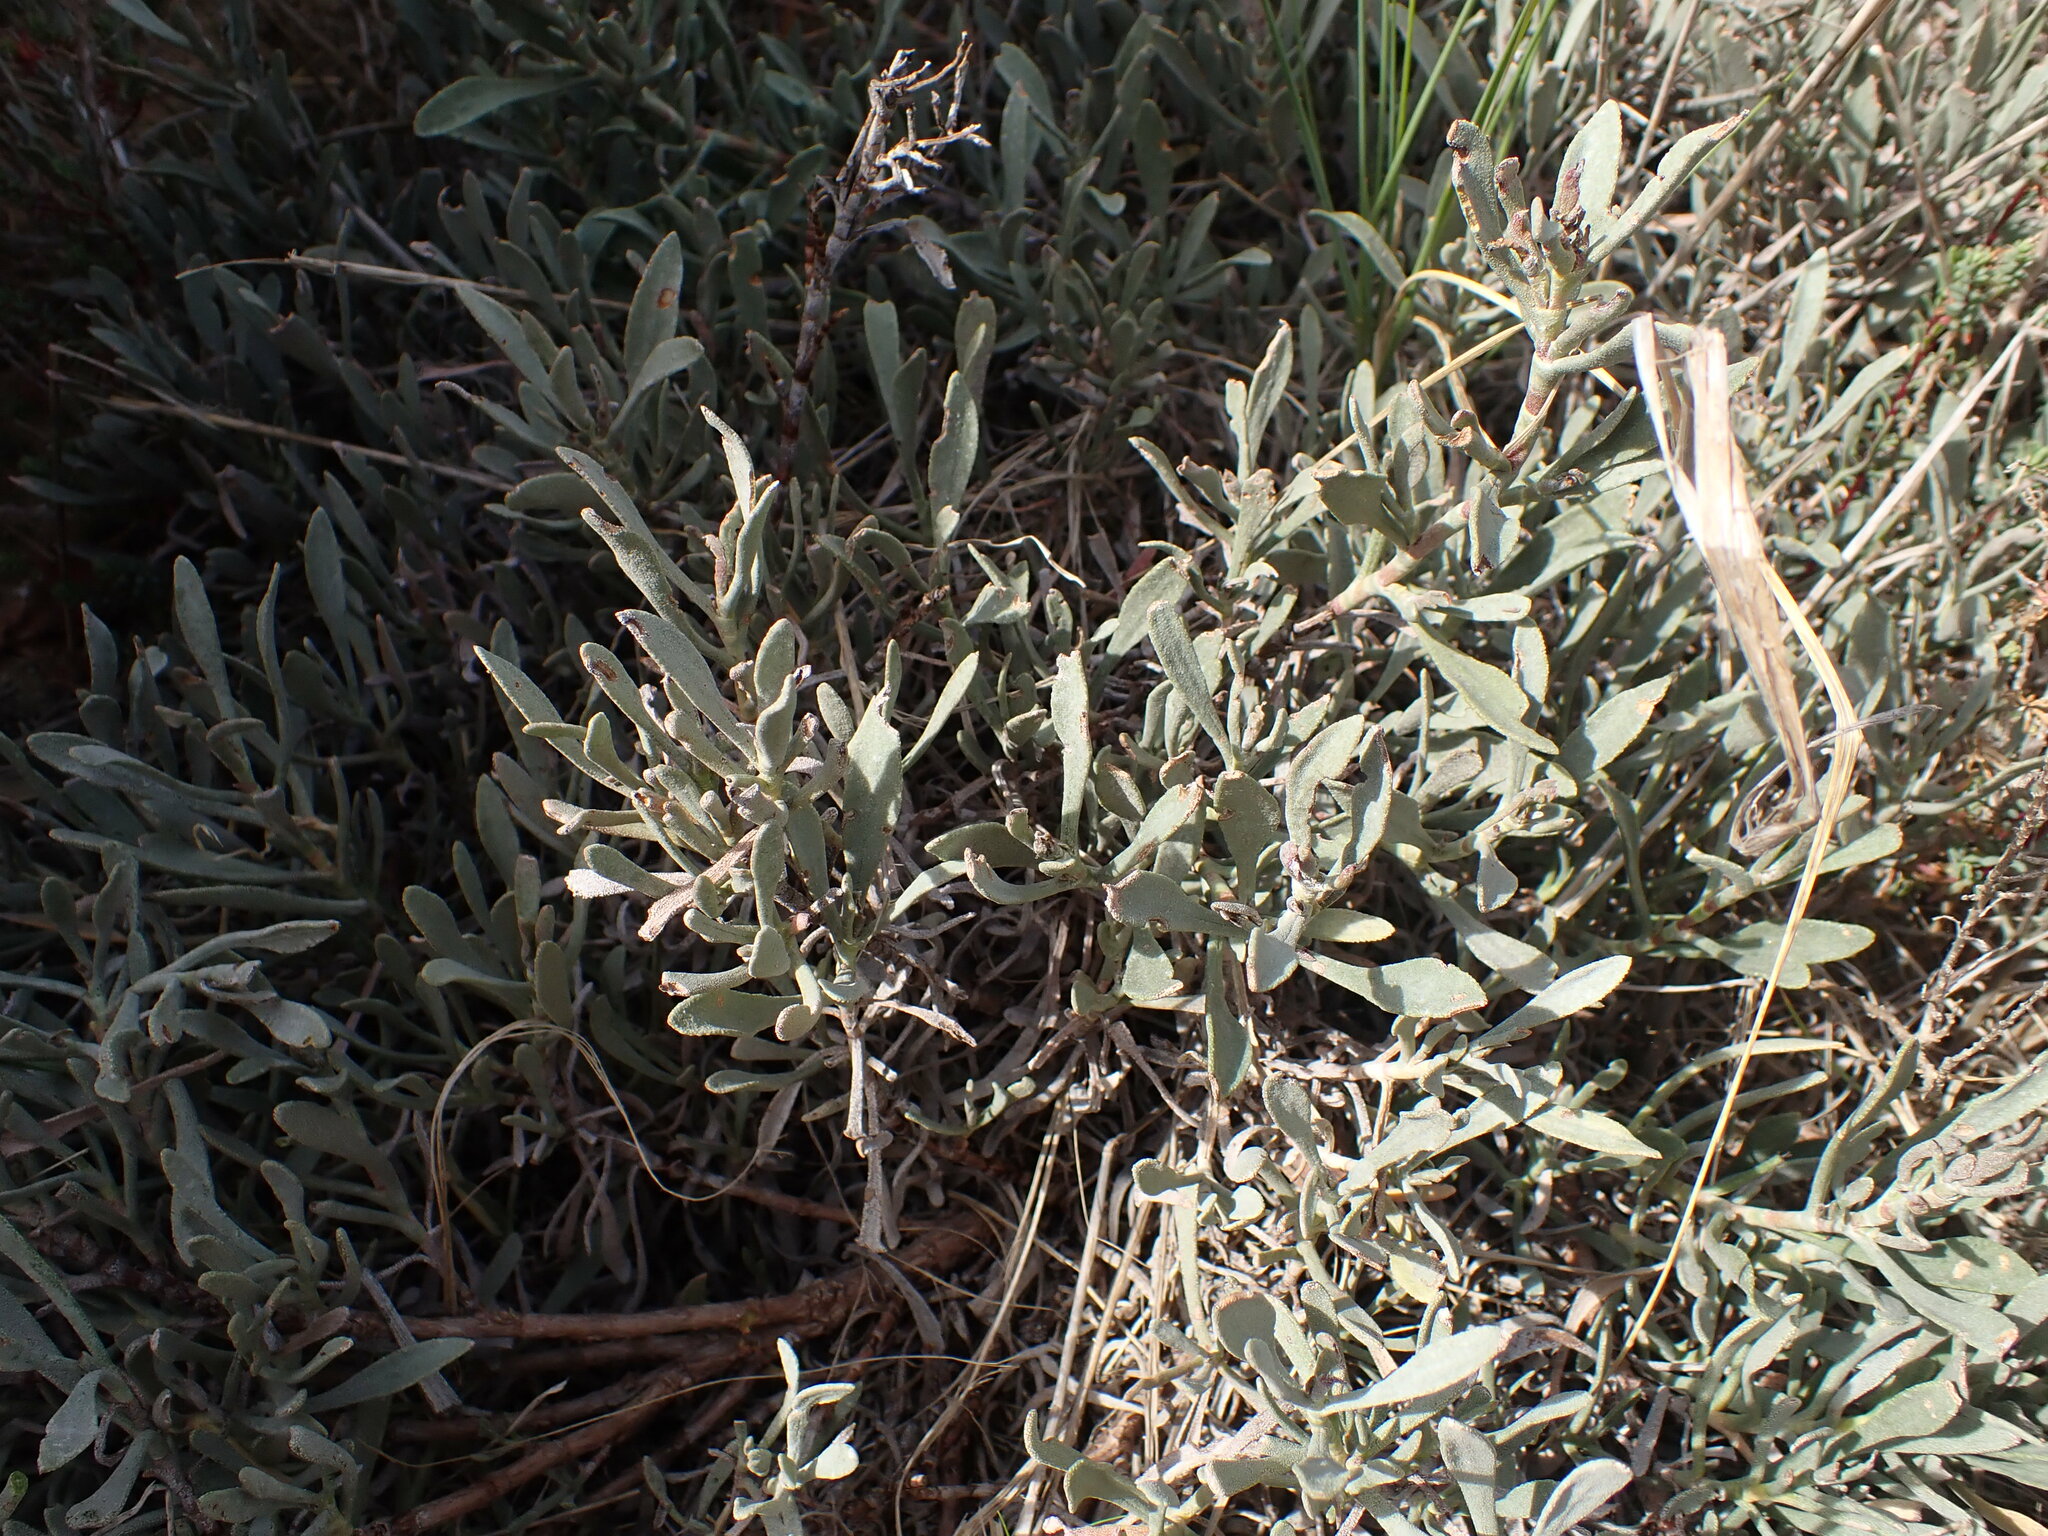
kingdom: Plantae
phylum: Tracheophyta
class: Magnoliopsida
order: Caryophyllales
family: Plumbaginaceae
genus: Limoniastrum
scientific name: Limoniastrum monopetalum
